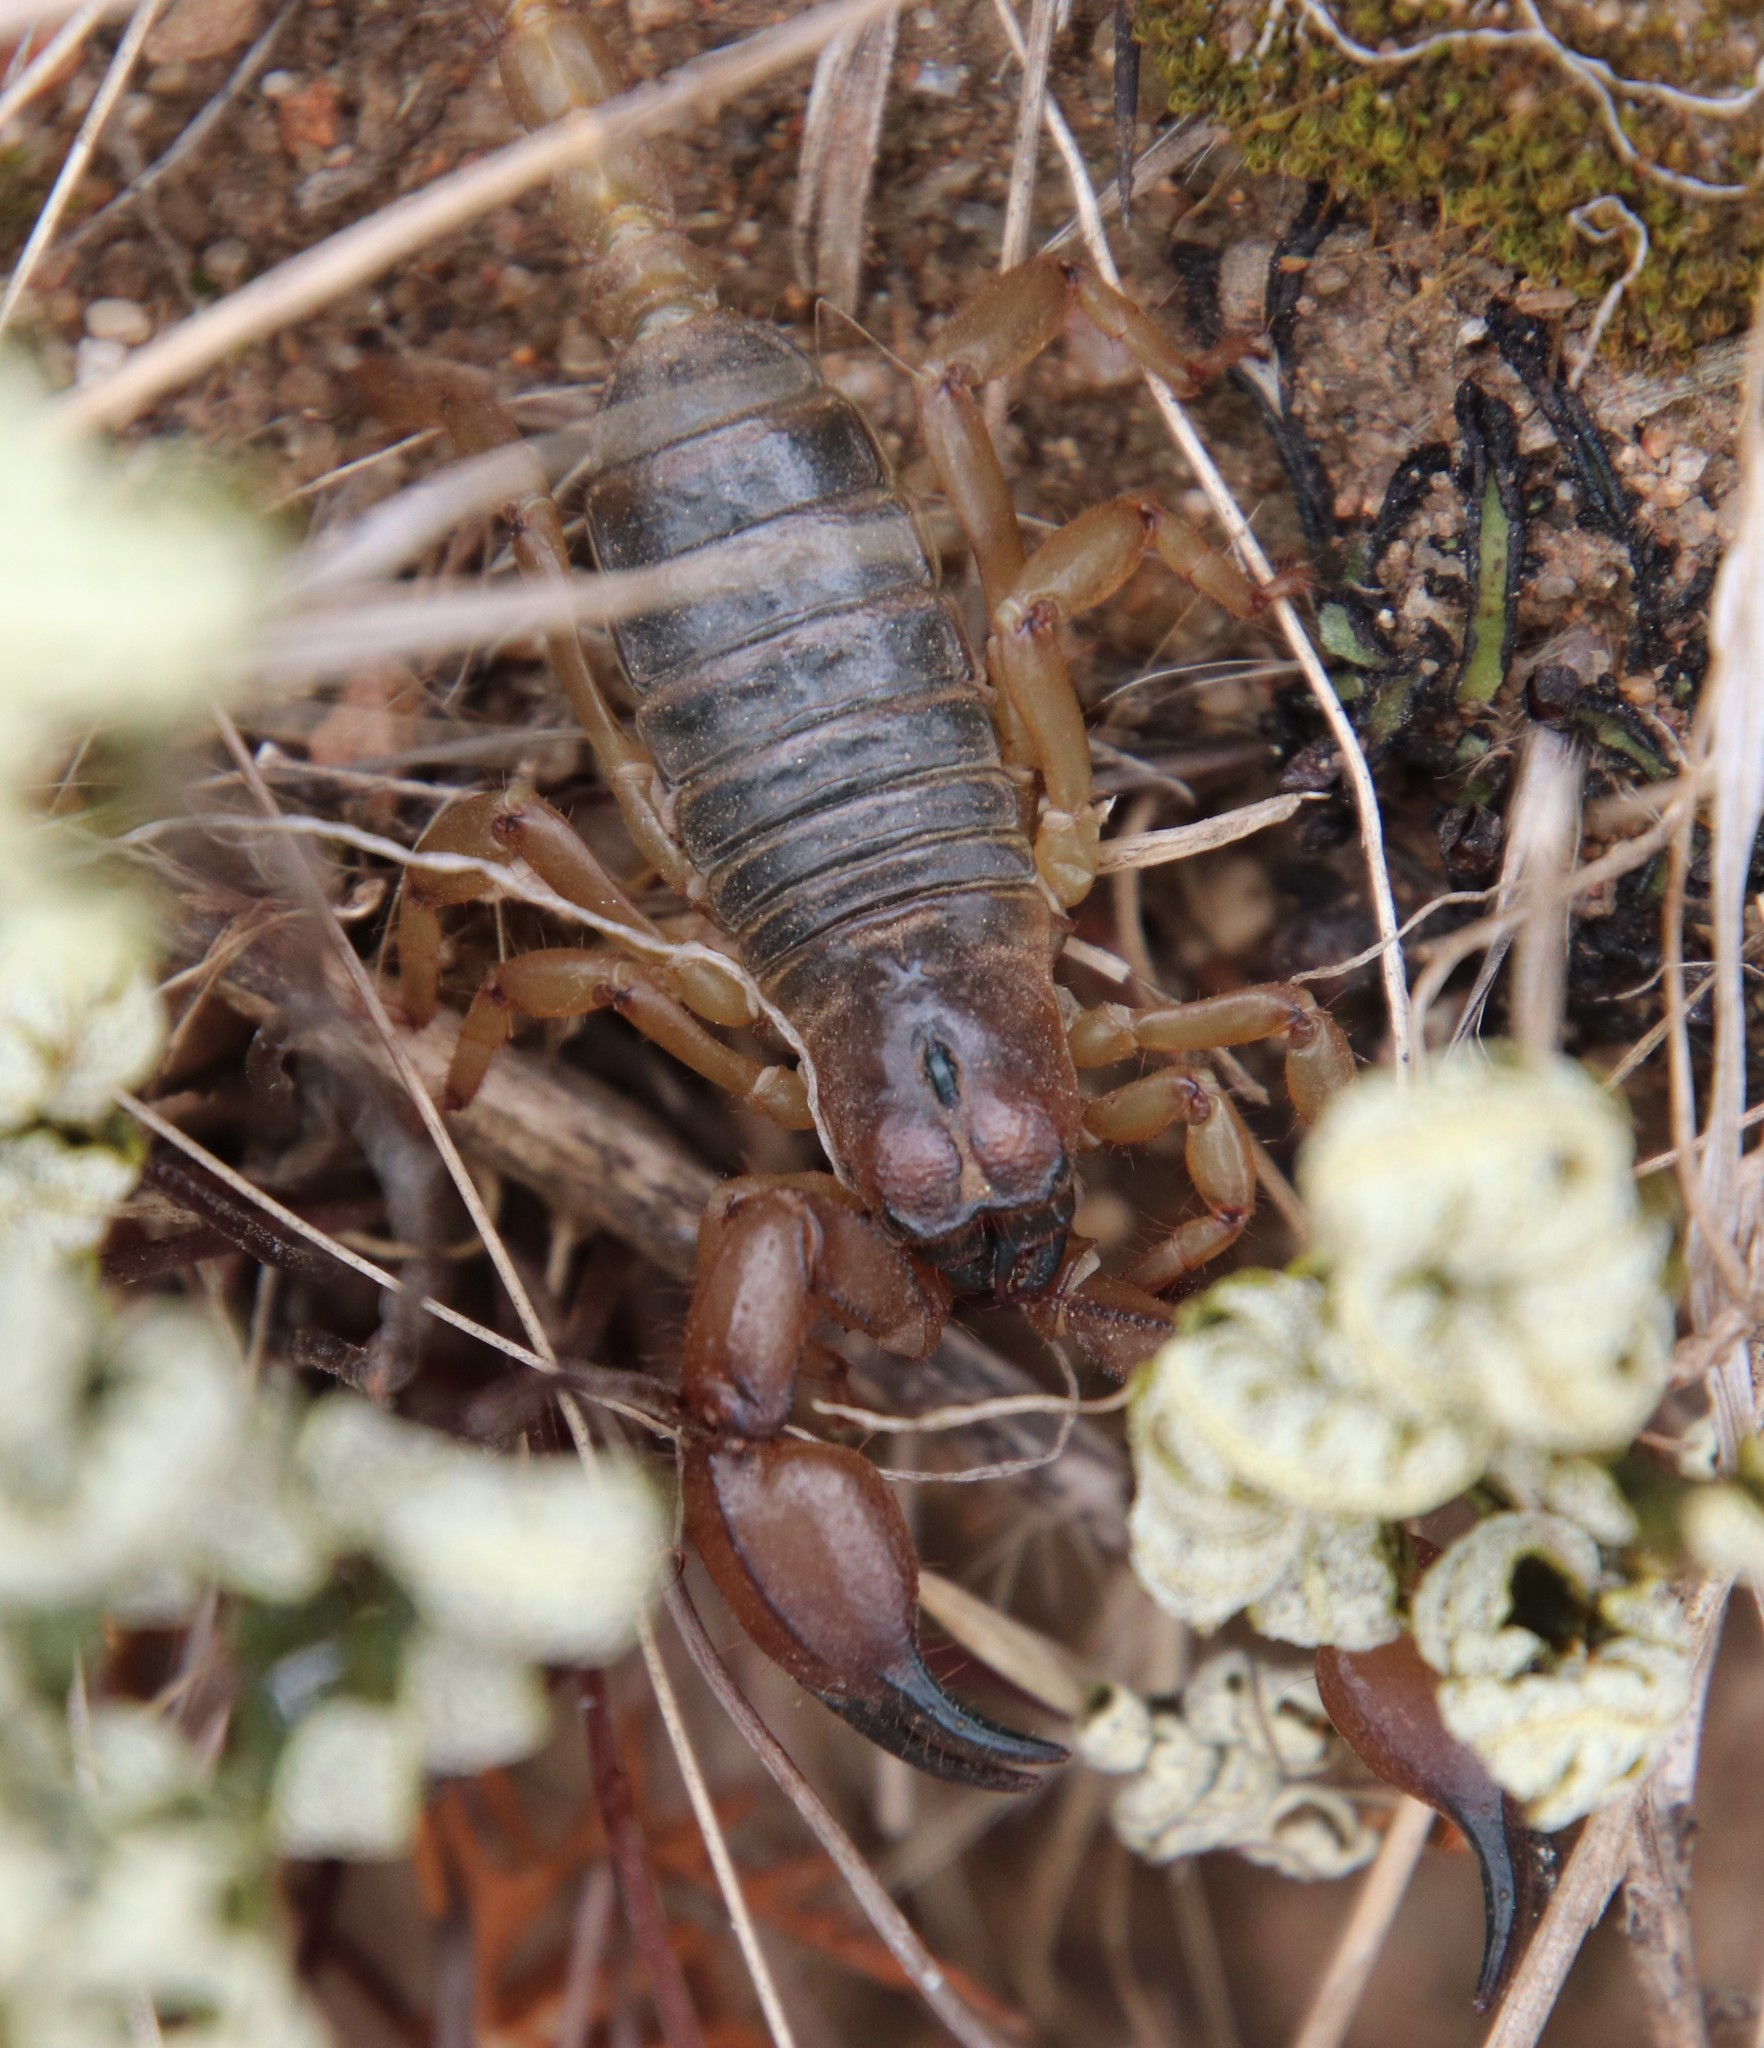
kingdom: Animalia
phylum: Arthropoda
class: Arachnida
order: Scorpiones
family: Chactidae
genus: Anuroctonus
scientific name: Anuroctonus pococki
